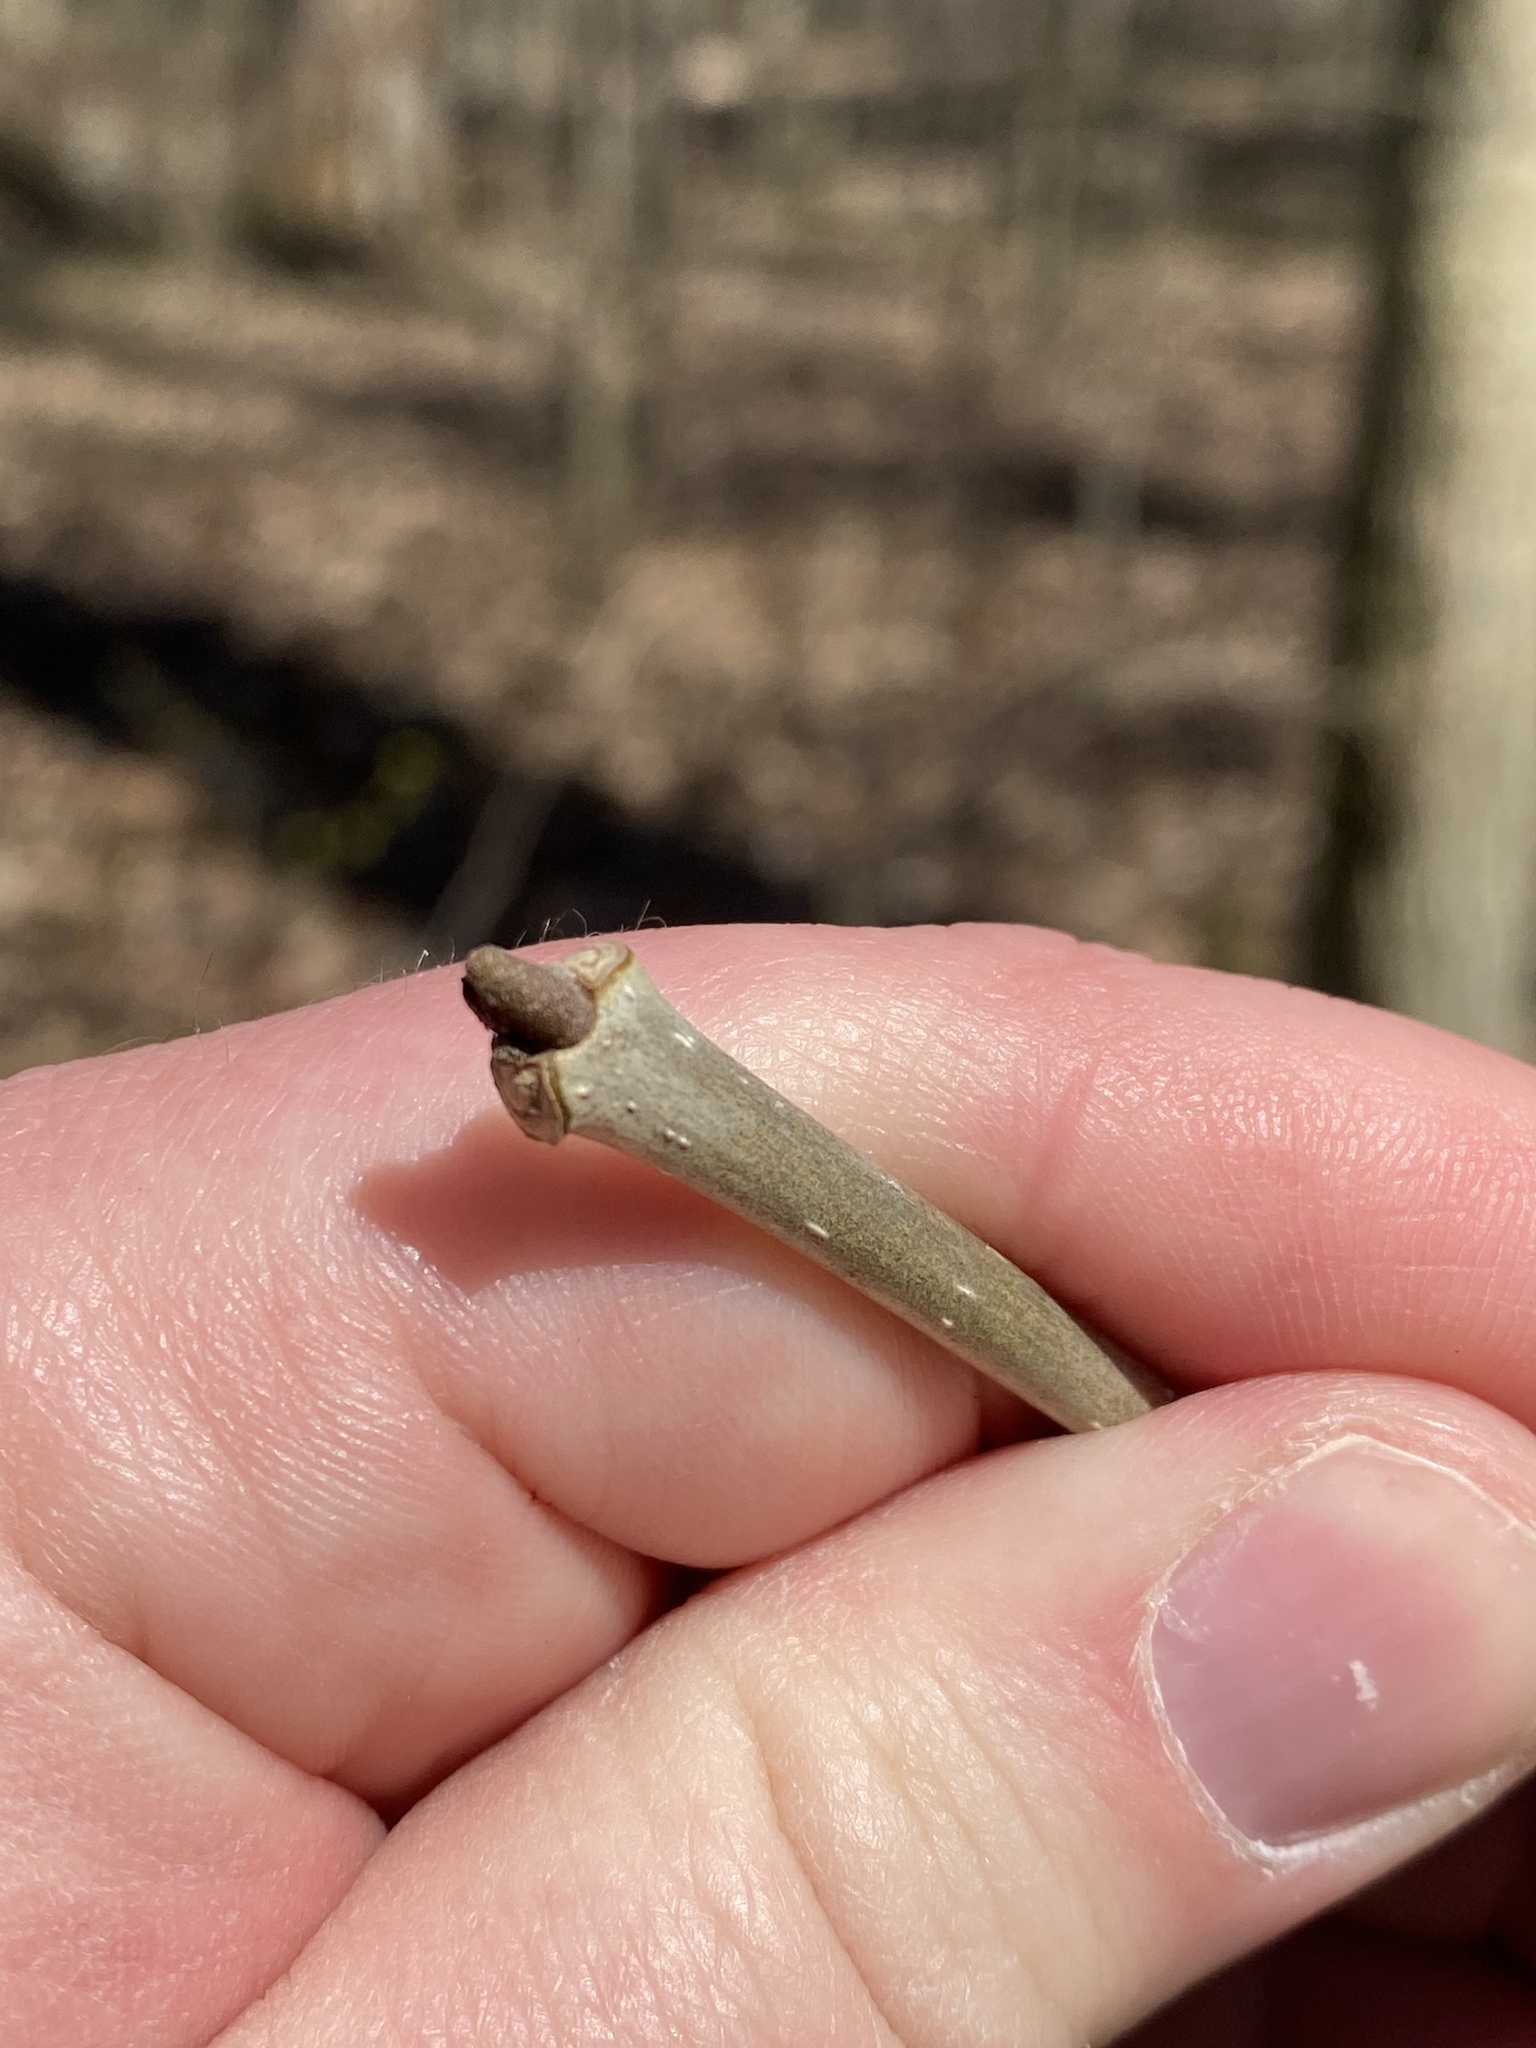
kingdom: Plantae
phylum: Tracheophyta
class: Magnoliopsida
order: Lamiales
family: Oleaceae
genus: Fraxinus
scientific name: Fraxinus nigra
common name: Black ash
